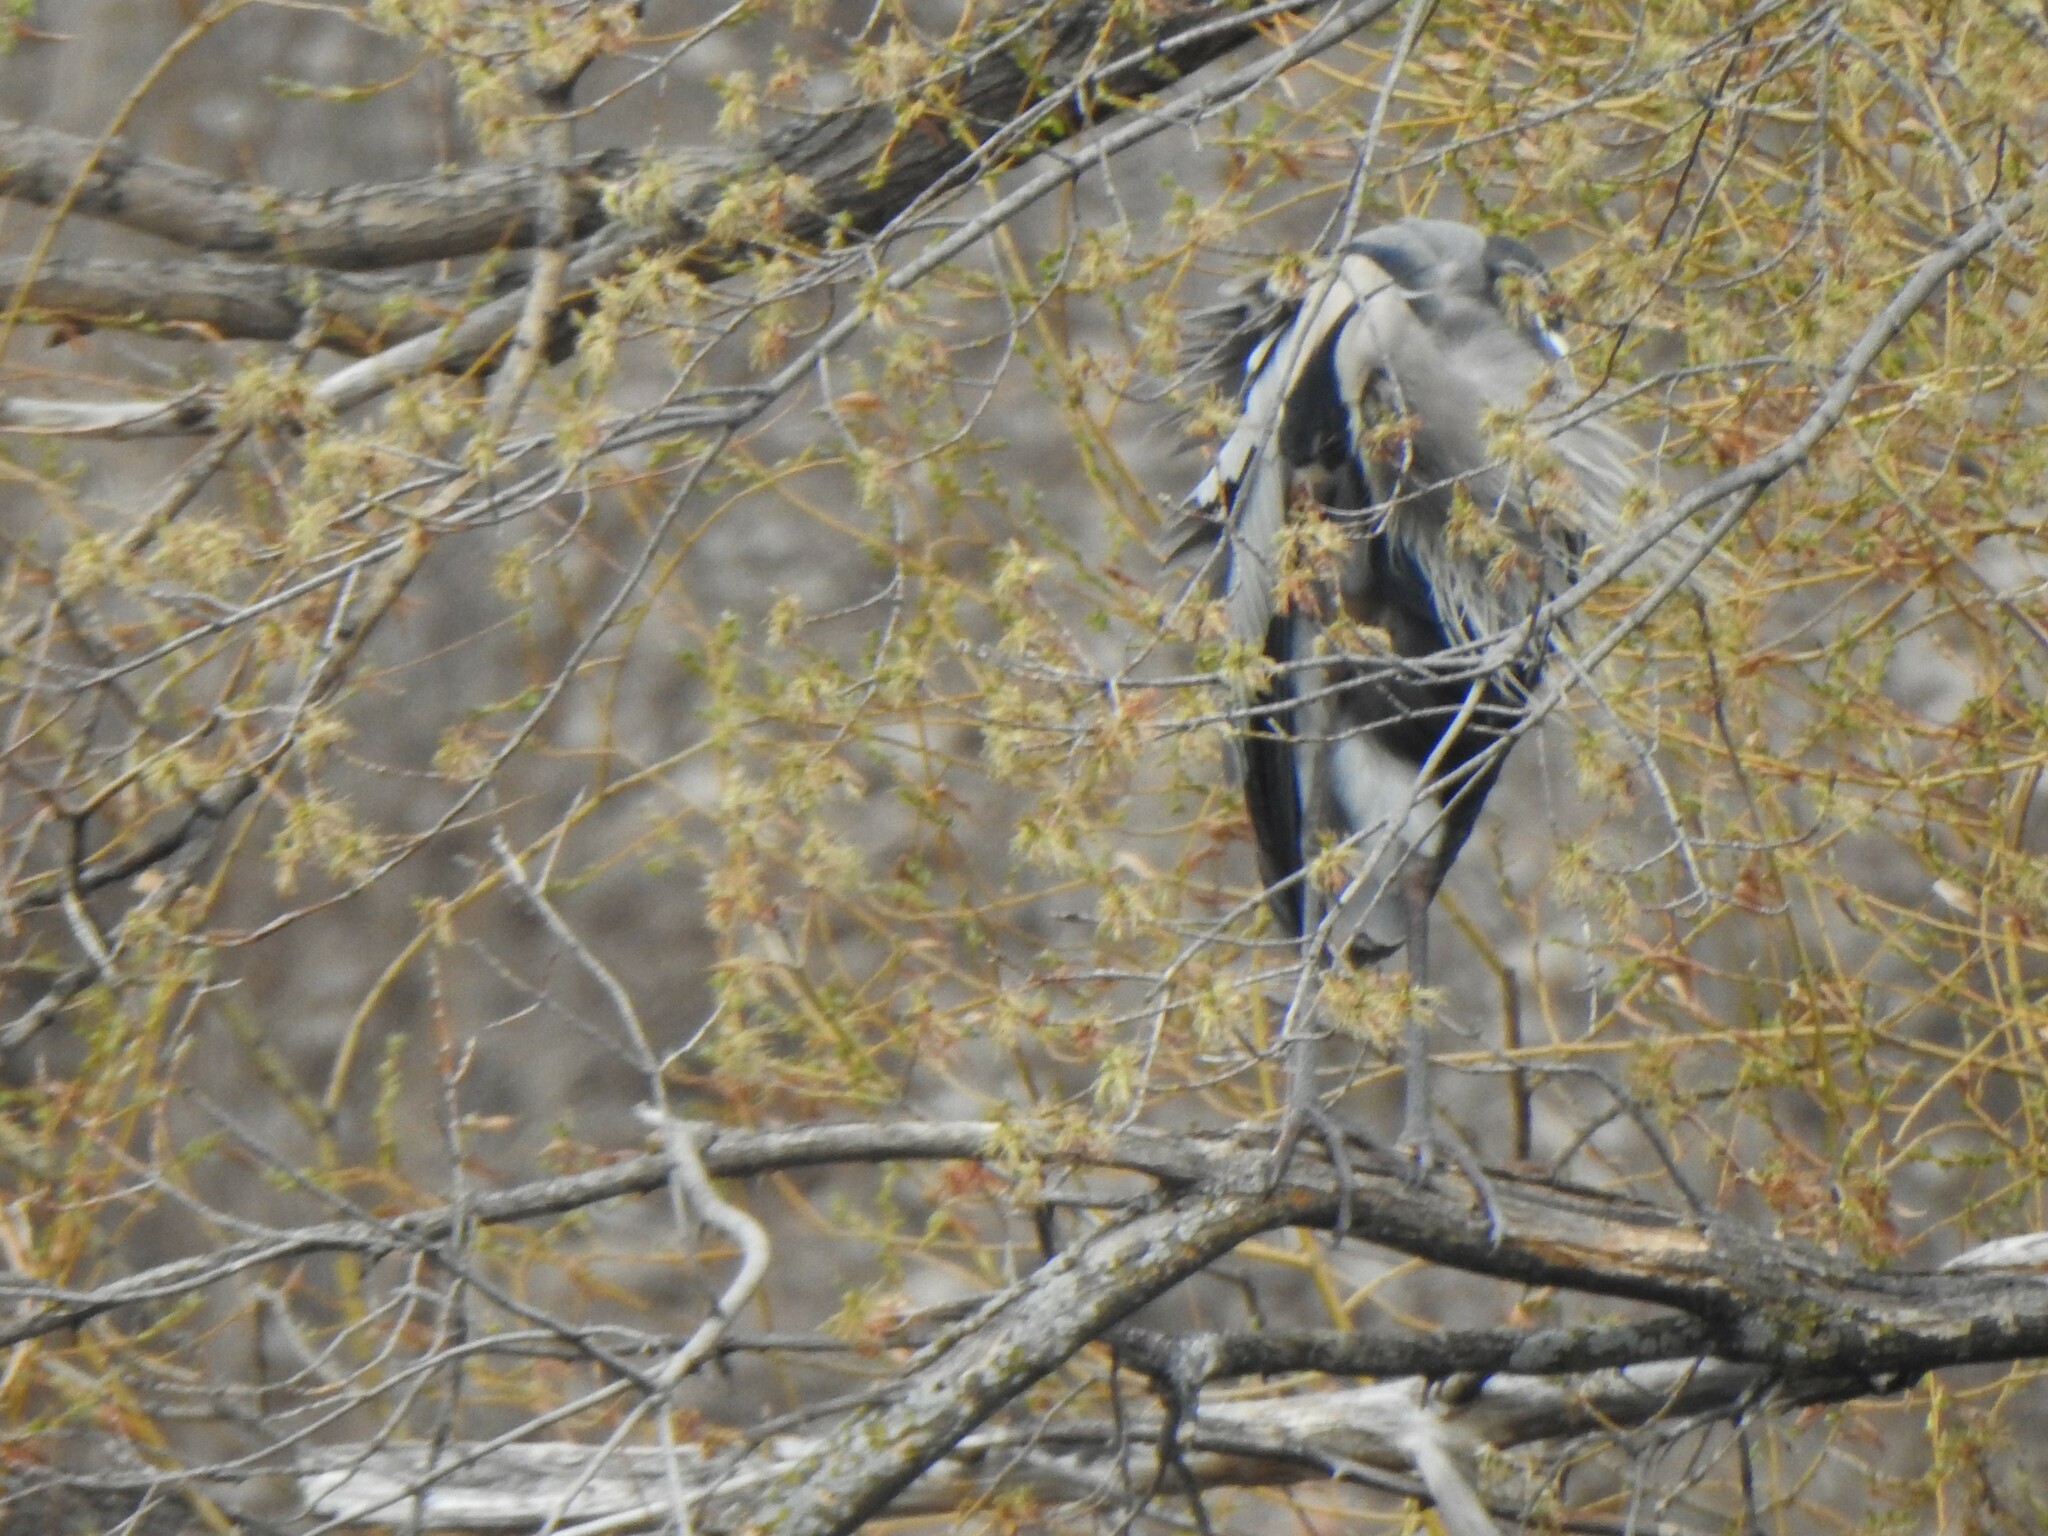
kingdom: Animalia
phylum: Chordata
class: Aves
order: Pelecaniformes
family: Ardeidae
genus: Ardea
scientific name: Ardea herodias
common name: Great blue heron
